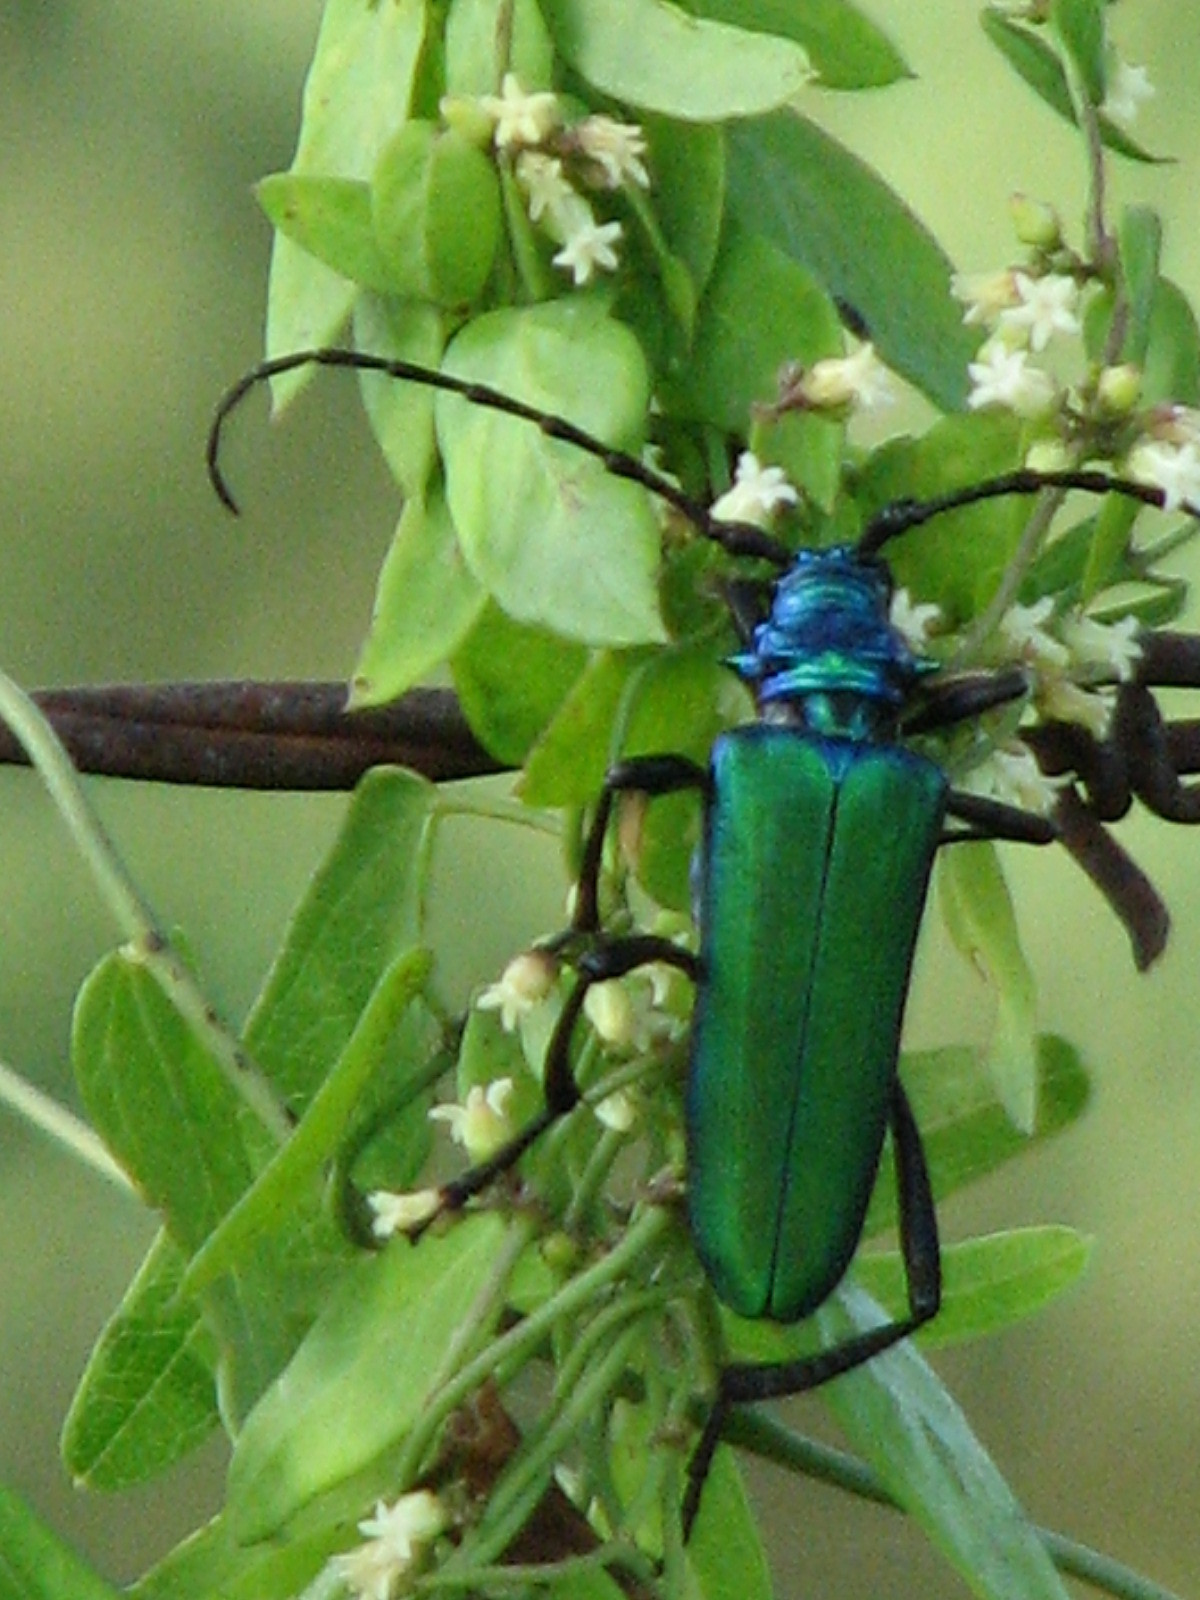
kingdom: Animalia
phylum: Arthropoda
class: Insecta
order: Coleoptera
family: Cerambycidae
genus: Plinthocoelium
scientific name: Plinthocoelium schwarzi
